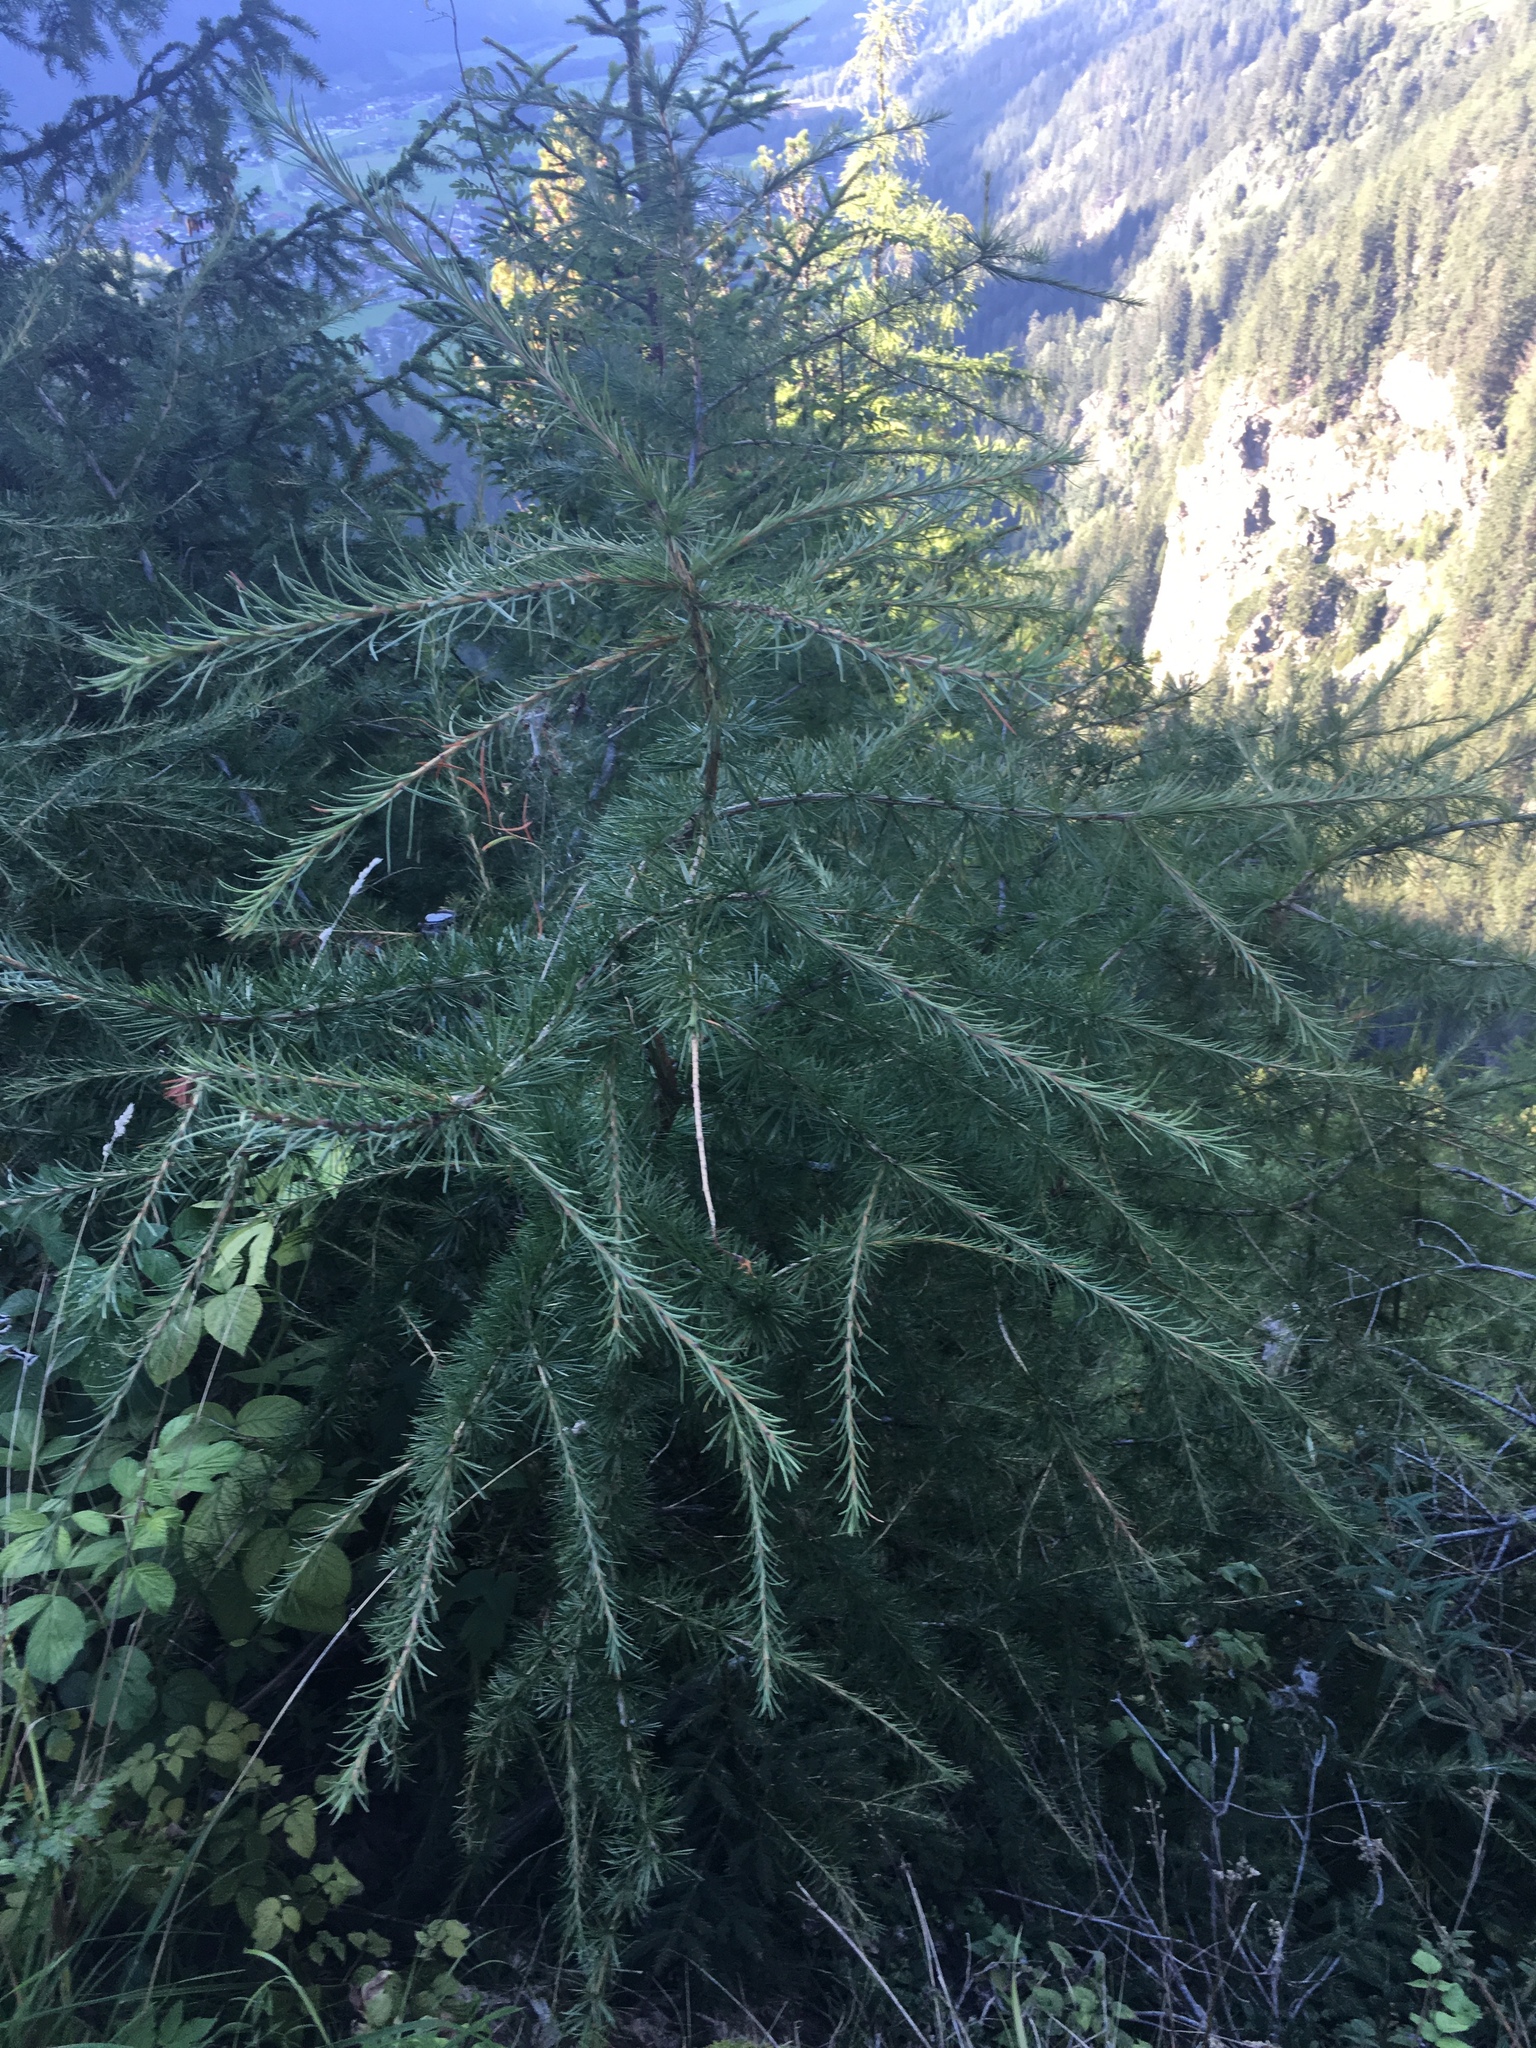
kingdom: Plantae
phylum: Tracheophyta
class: Pinopsida
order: Pinales
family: Pinaceae
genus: Larix
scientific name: Larix decidua
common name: European larch
